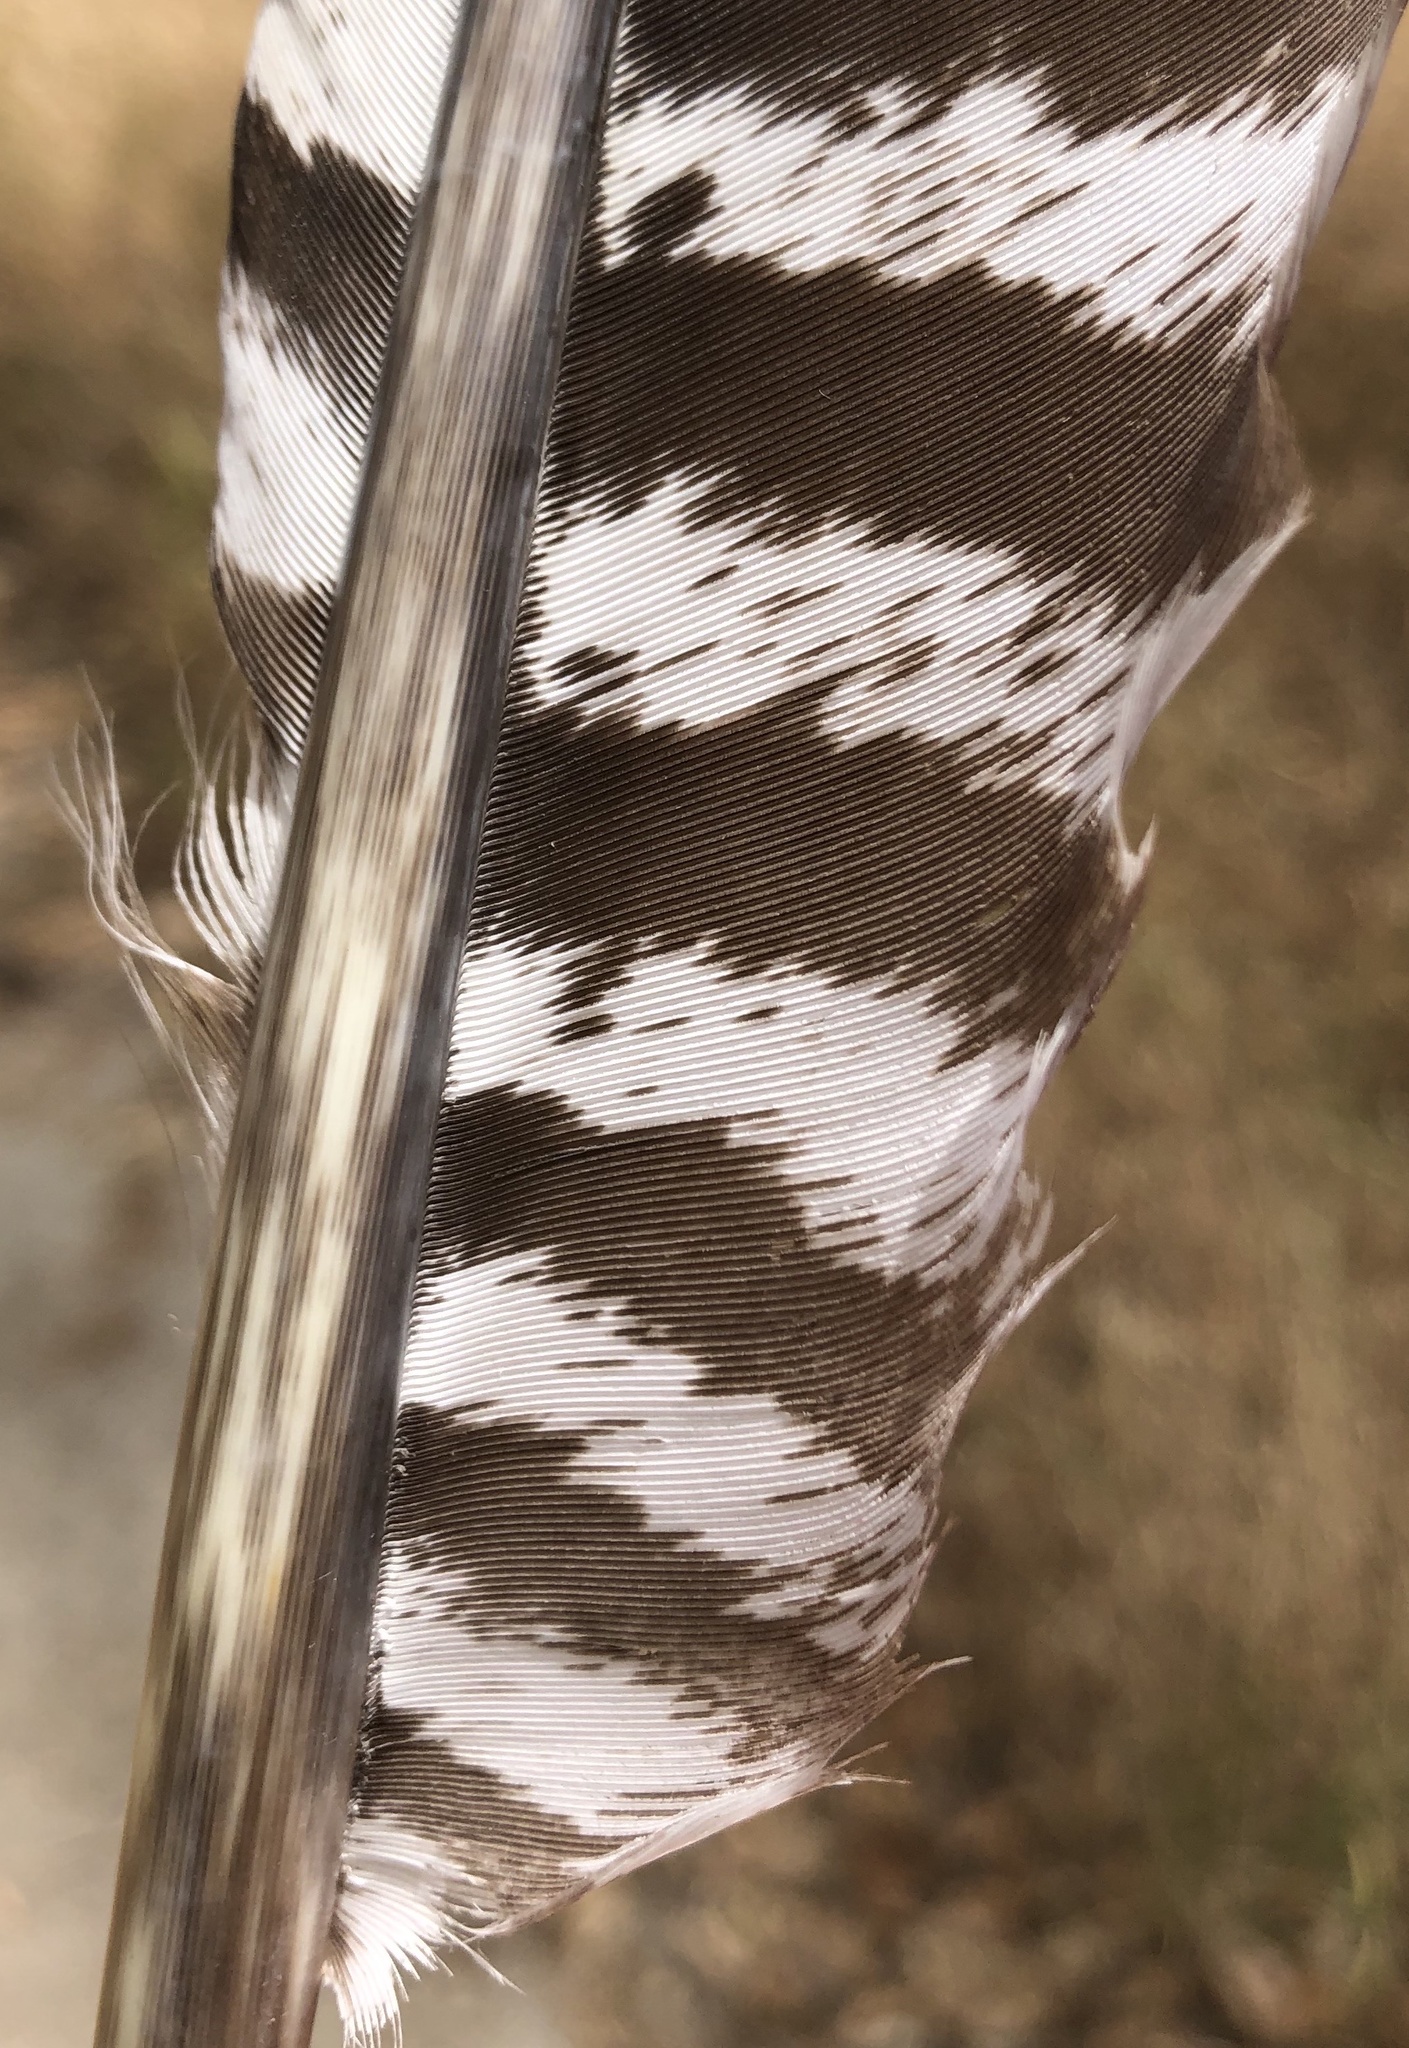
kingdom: Animalia
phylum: Chordata
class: Aves
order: Galliformes
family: Phasianidae
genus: Meleagris
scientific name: Meleagris gallopavo
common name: Wild turkey
